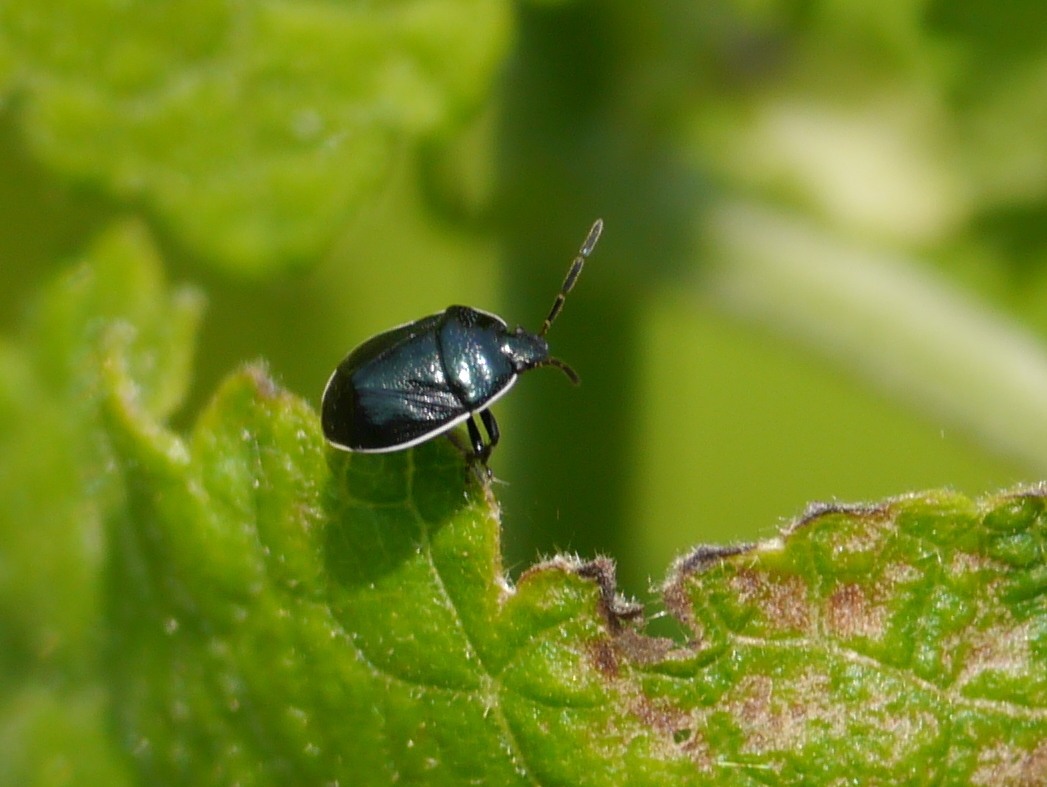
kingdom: Animalia
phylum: Arthropoda
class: Insecta
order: Hemiptera
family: Cydnidae
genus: Sehirus
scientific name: Sehirus cinctus
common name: White-margined burrower bug
